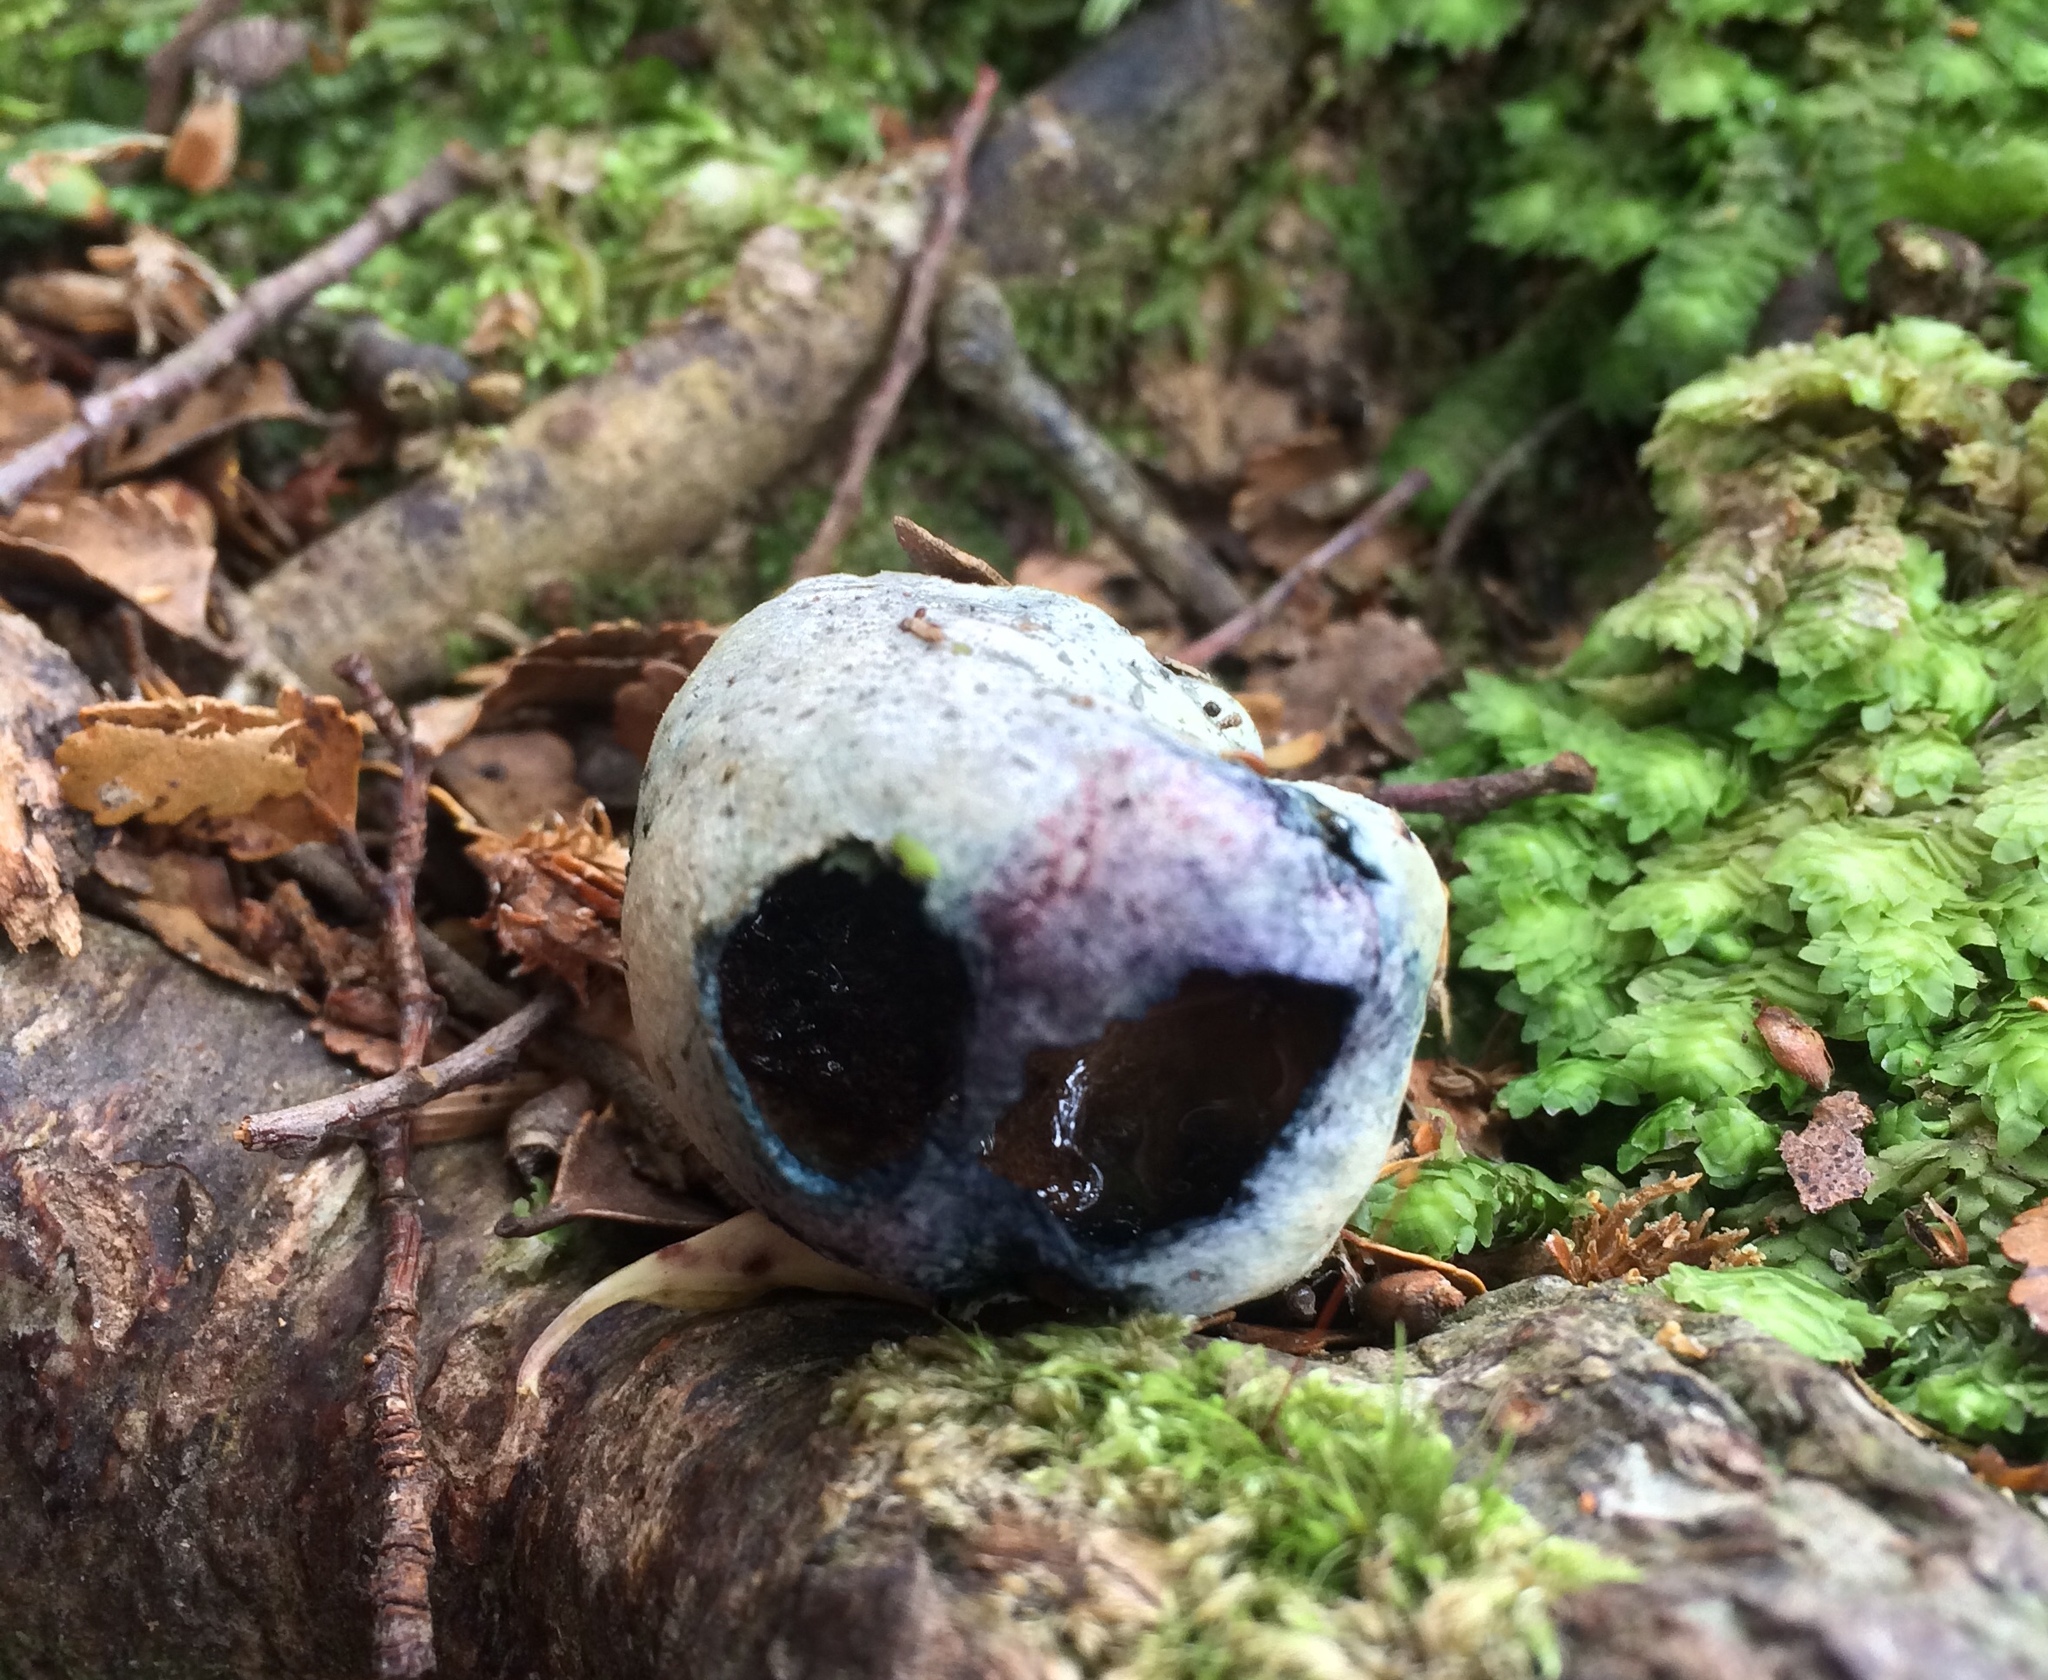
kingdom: Fungi
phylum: Basidiomycota
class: Agaricomycetes
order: Boletales
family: Boletaceae
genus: Leccinum
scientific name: Leccinum pachyderme
